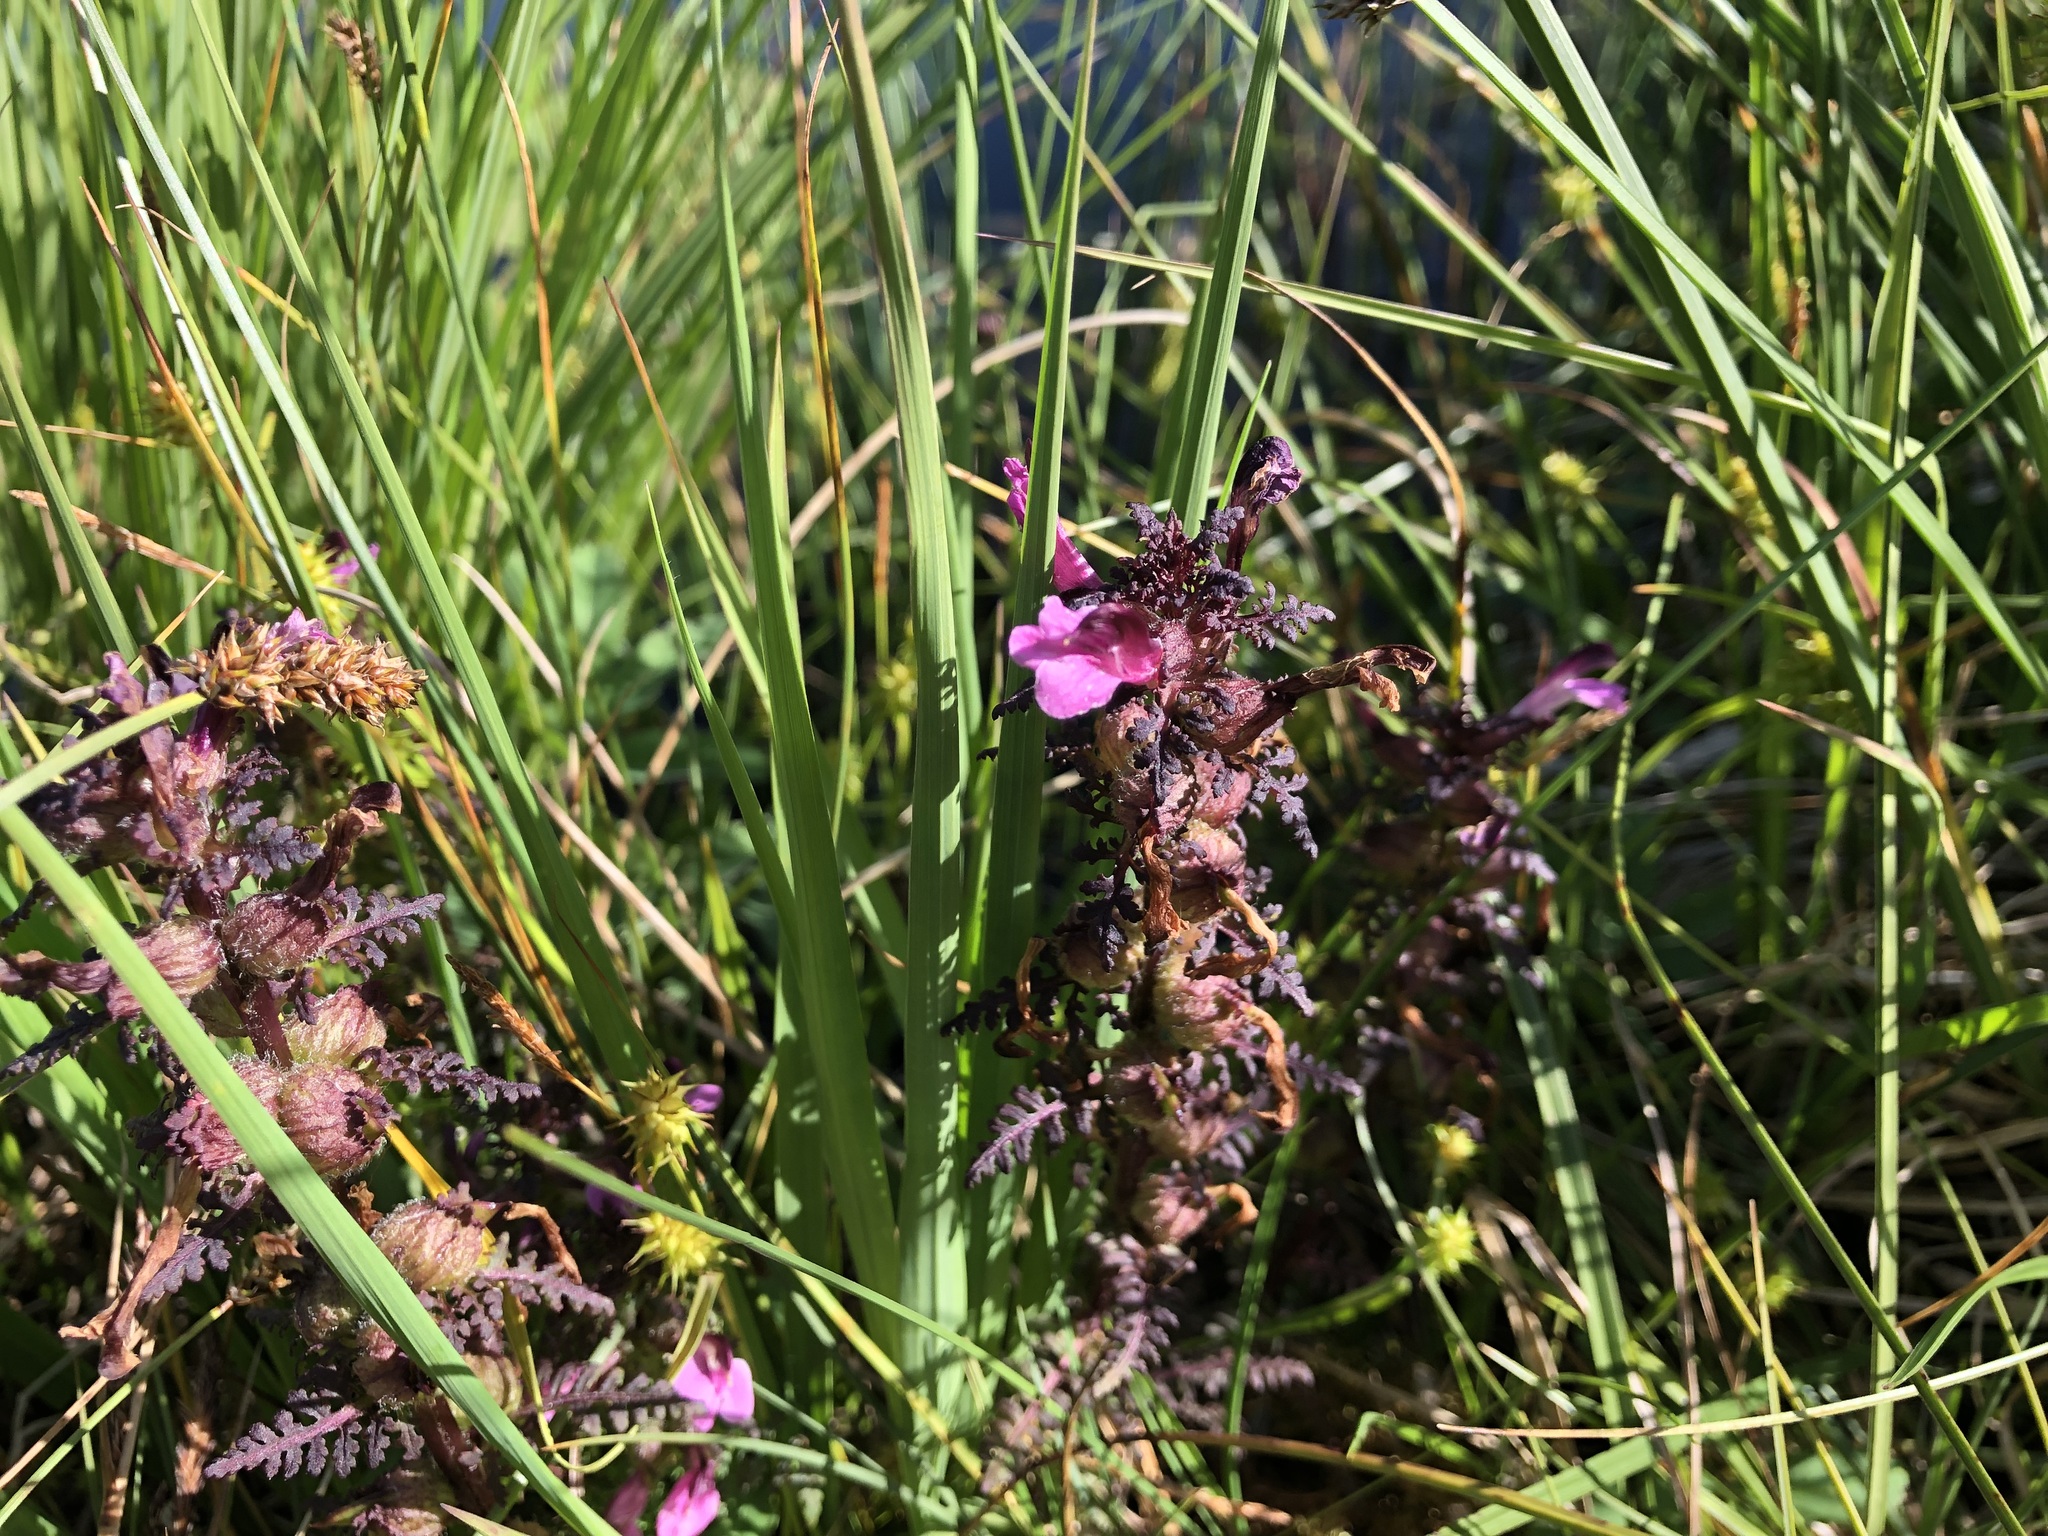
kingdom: Plantae
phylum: Tracheophyta
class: Magnoliopsida
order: Lamiales
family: Orobanchaceae
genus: Pedicularis
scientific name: Pedicularis palustris
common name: Marsh lousewort
